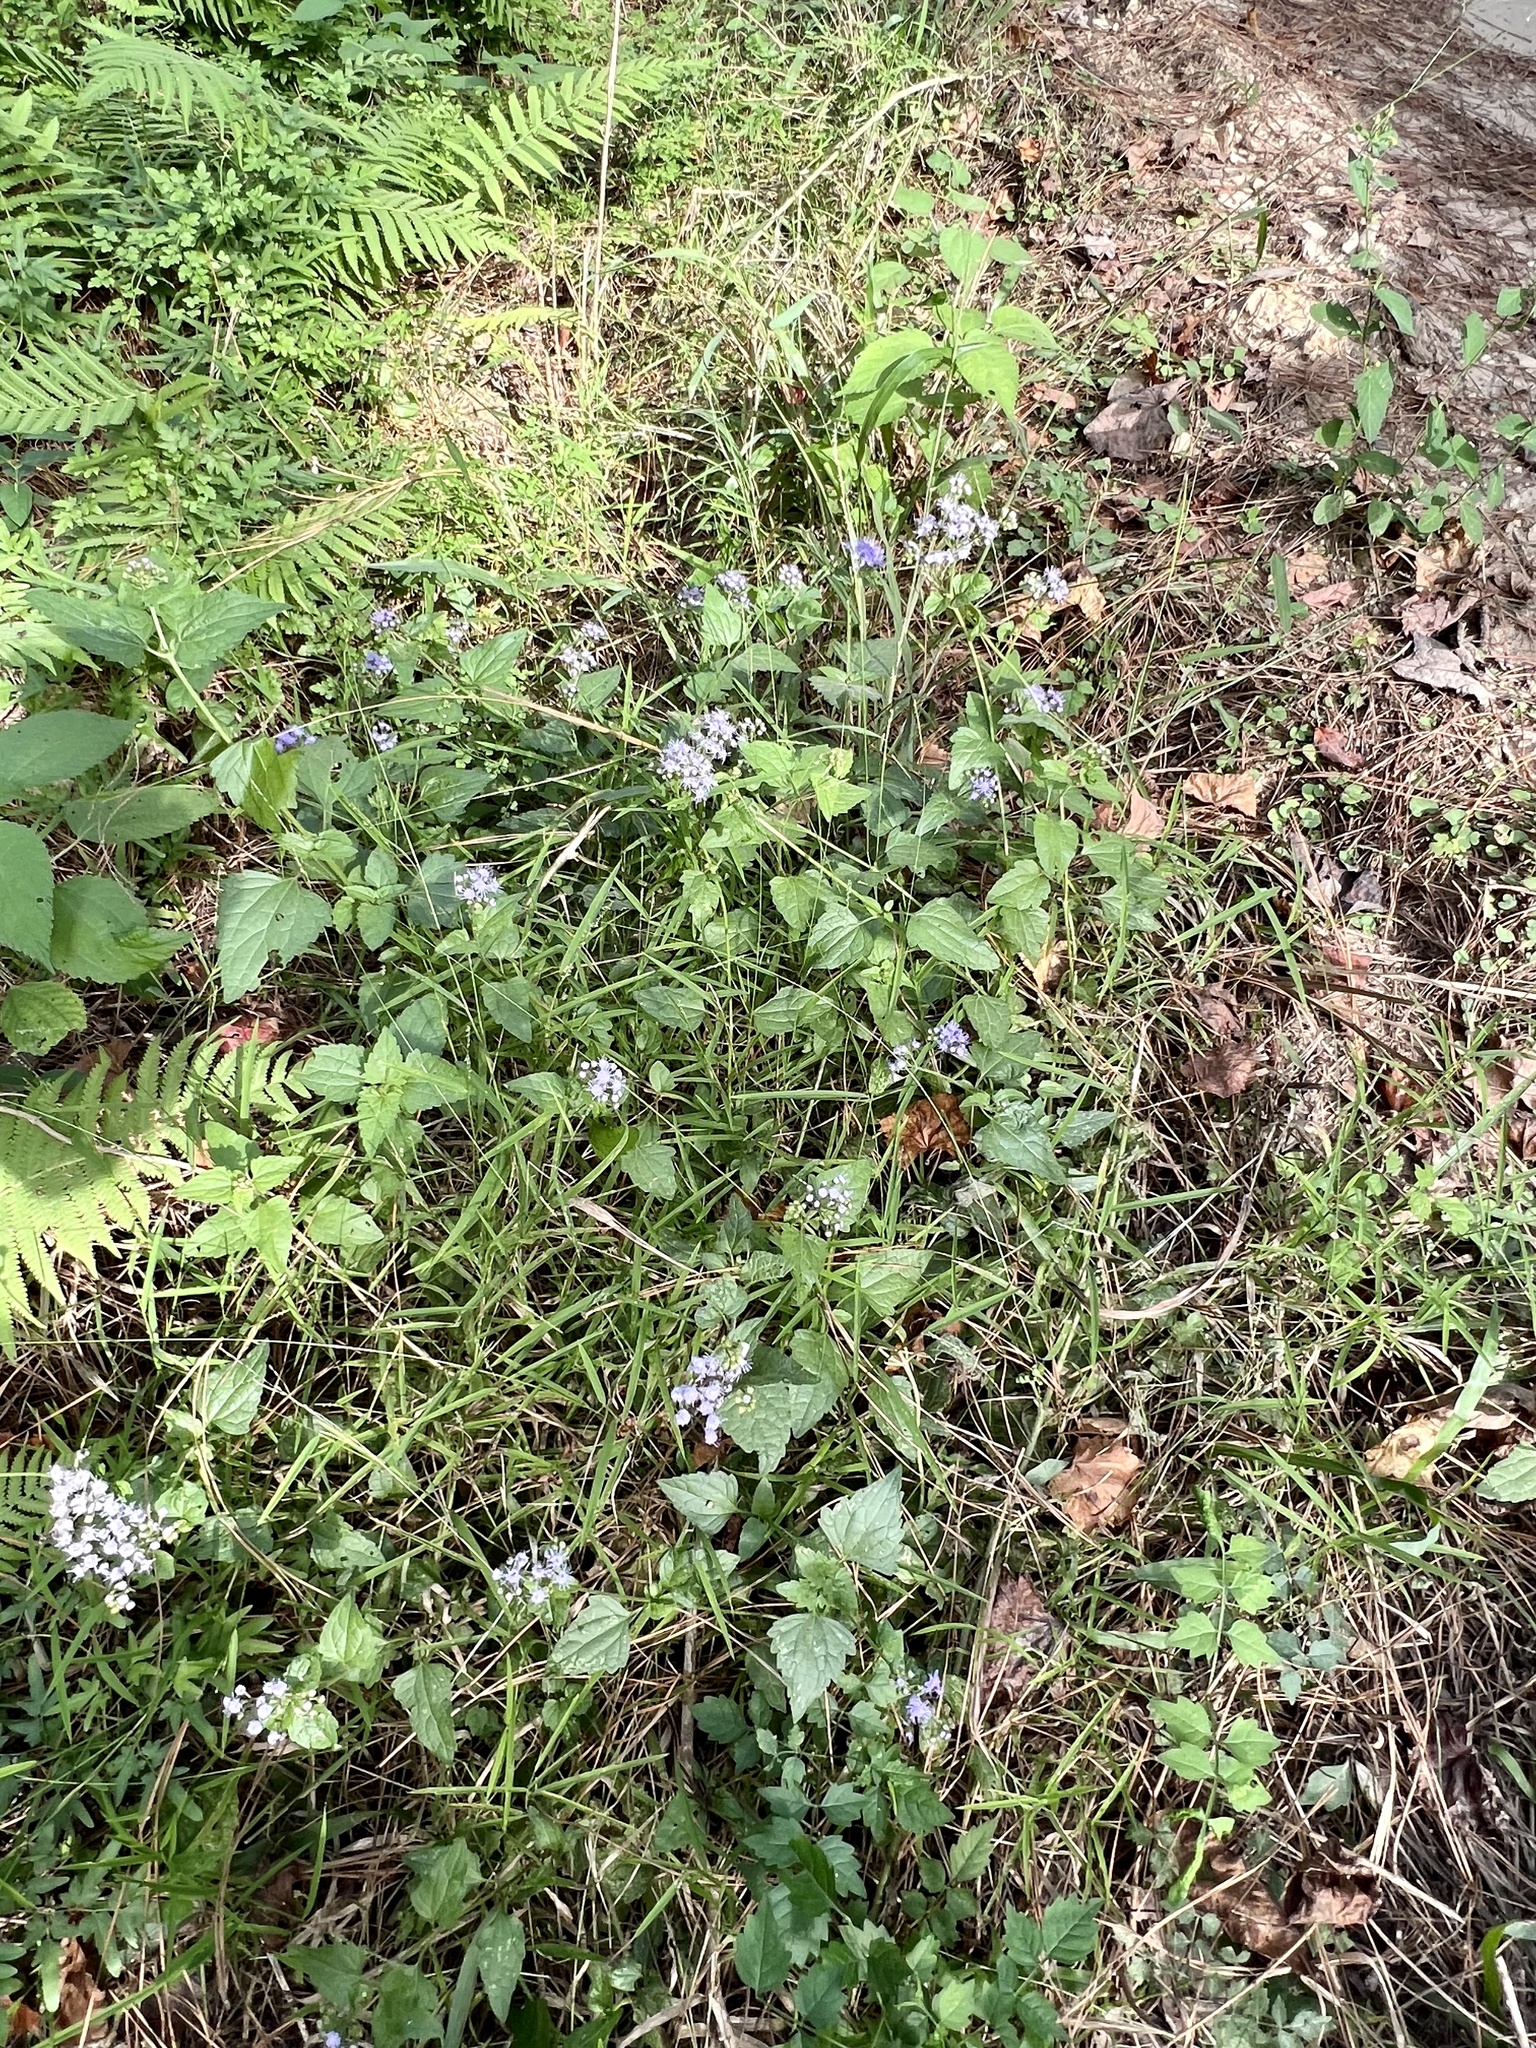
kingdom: Plantae
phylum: Tracheophyta
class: Magnoliopsida
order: Asterales
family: Asteraceae
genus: Conoclinium
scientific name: Conoclinium coelestinum
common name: Blue mistflower
